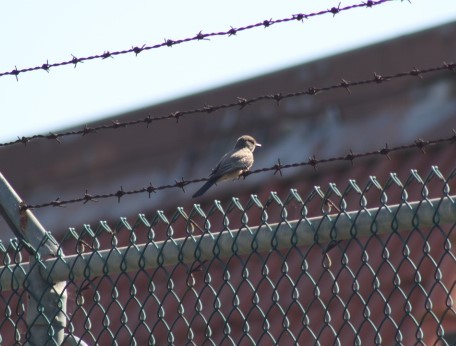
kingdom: Animalia
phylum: Chordata
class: Aves
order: Passeriformes
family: Tyrannidae
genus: Sayornis
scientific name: Sayornis saya
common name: Say's phoebe
